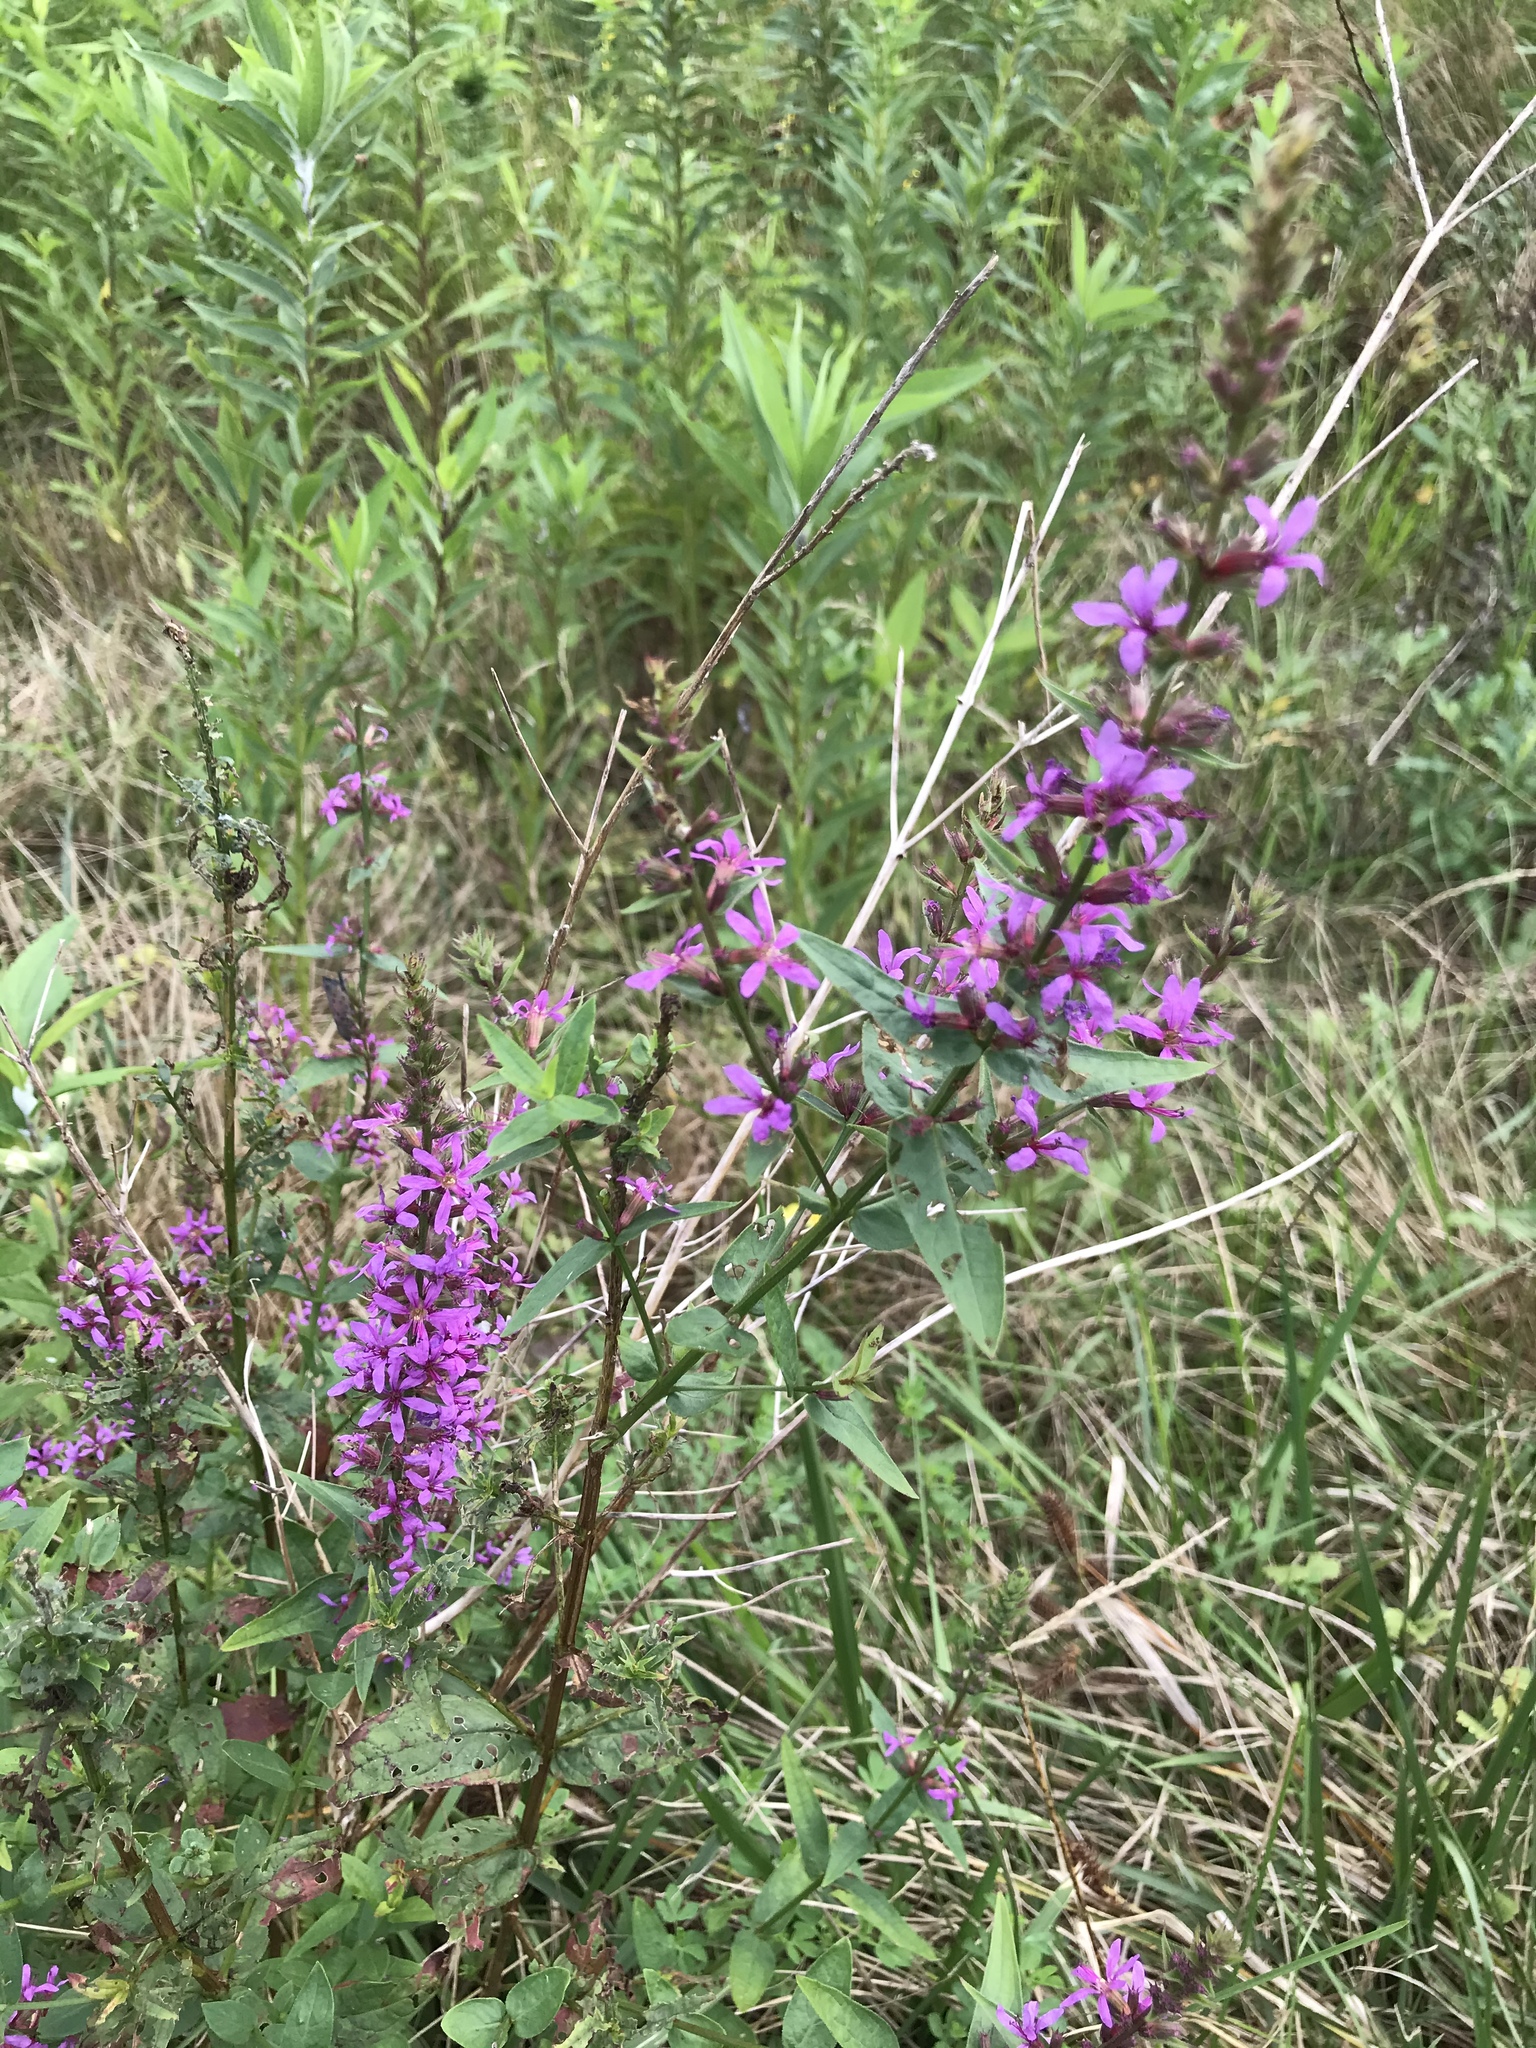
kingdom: Plantae
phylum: Tracheophyta
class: Magnoliopsida
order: Myrtales
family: Lythraceae
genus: Lythrum
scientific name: Lythrum salicaria
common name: Purple loosestrife
